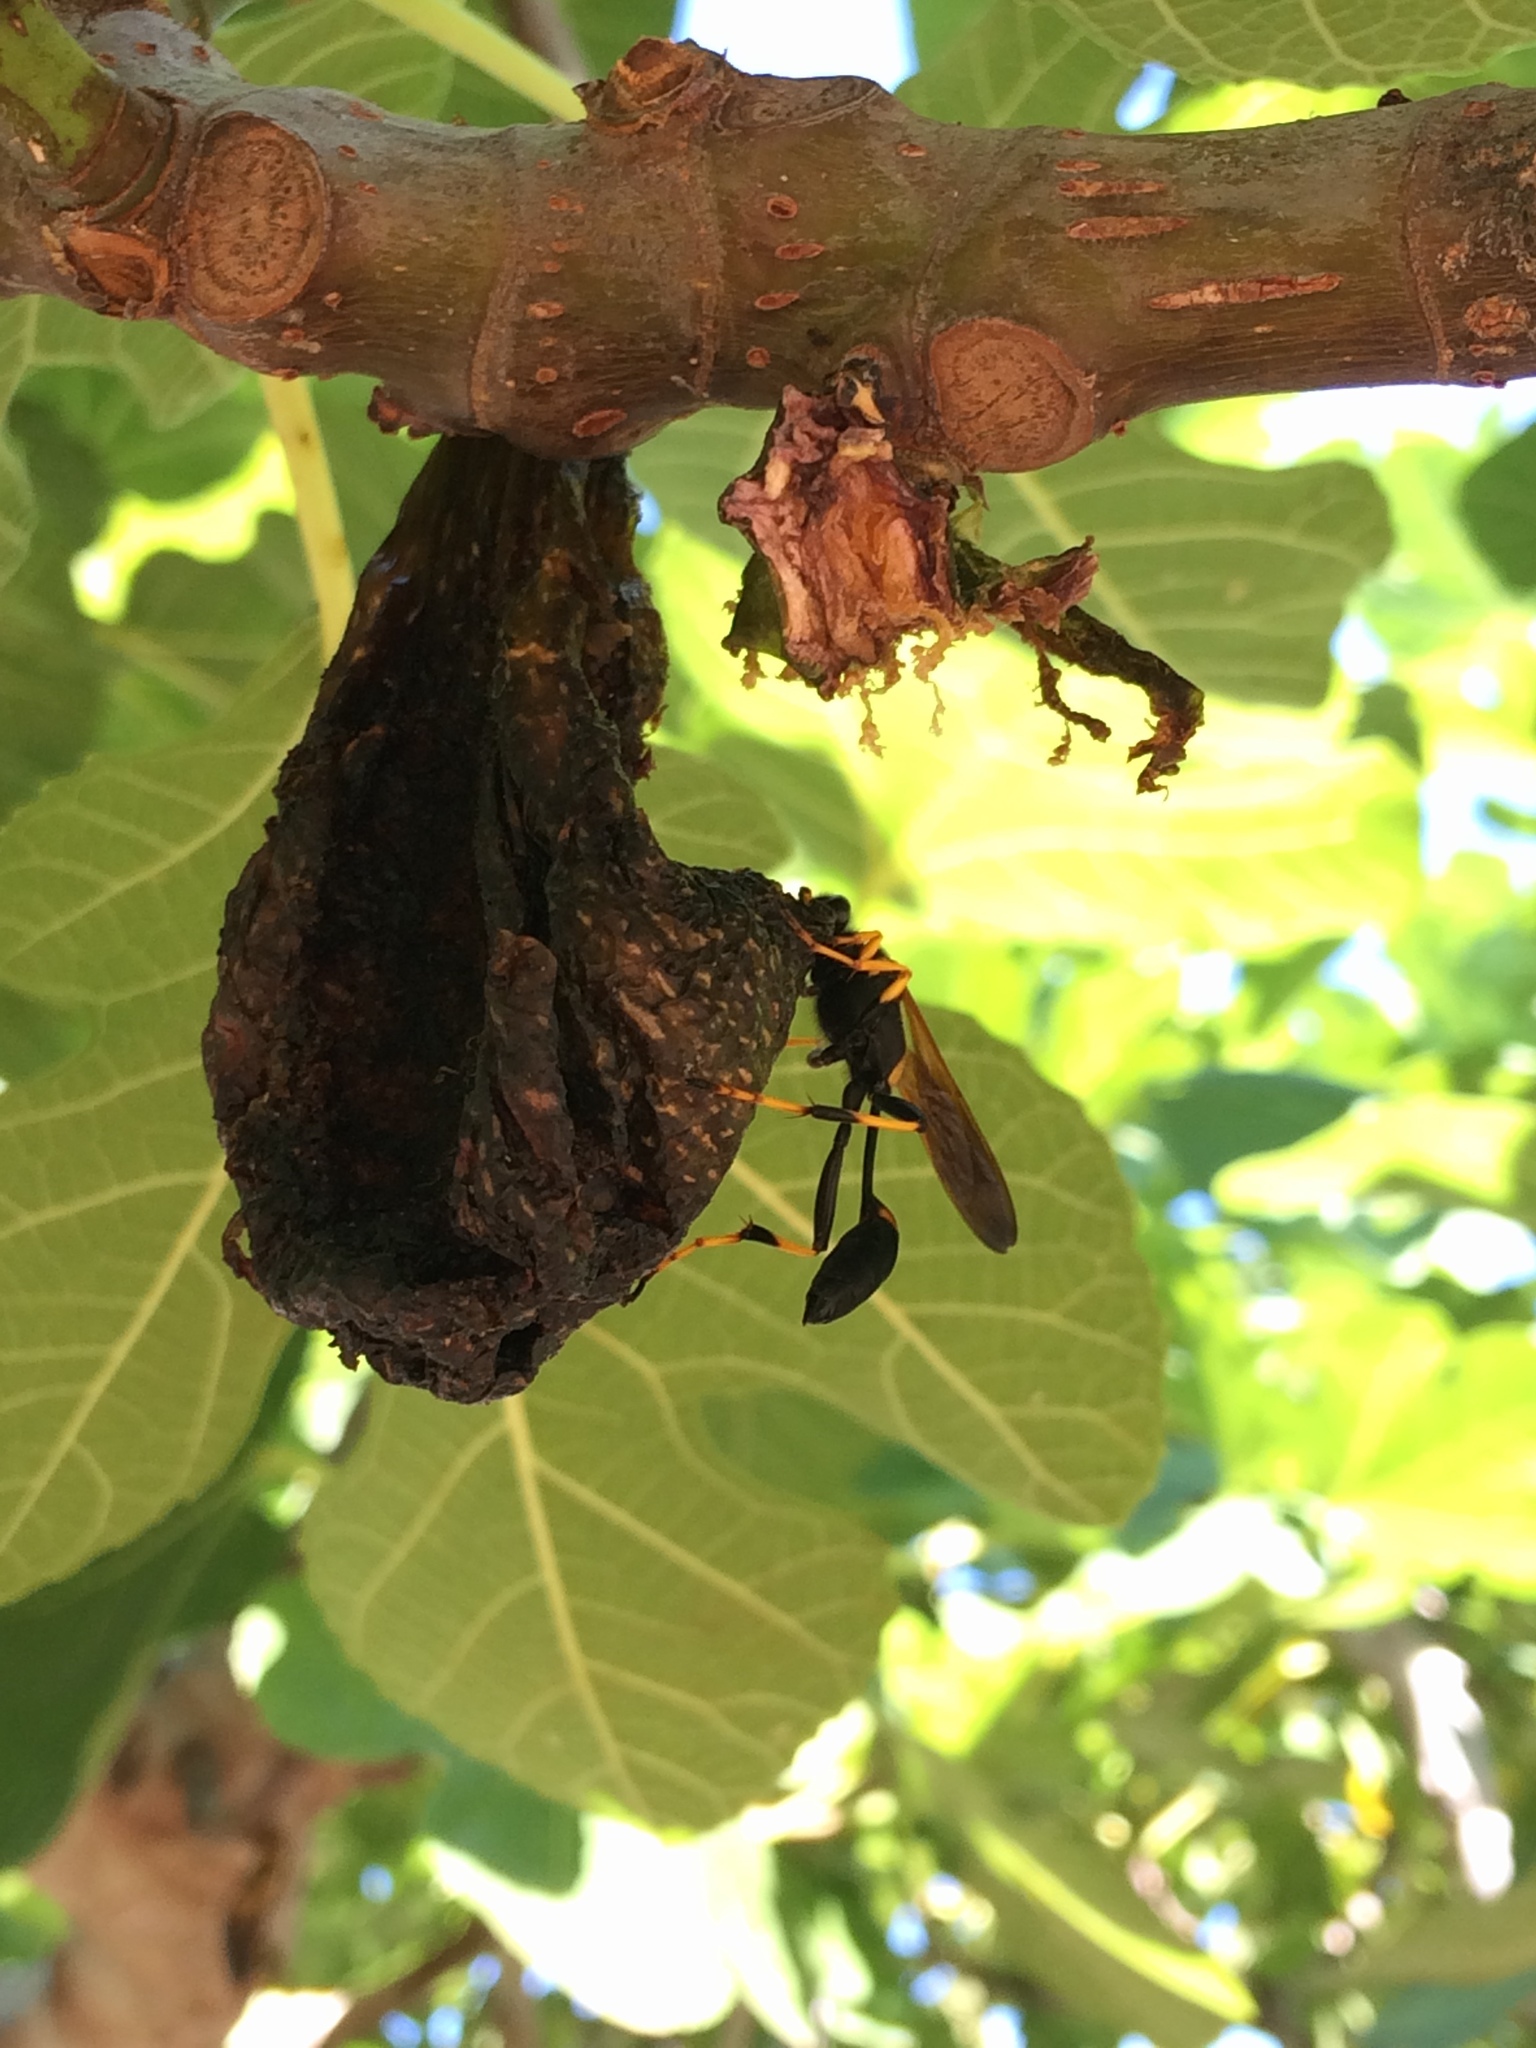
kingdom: Animalia
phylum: Arthropoda
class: Insecta
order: Hymenoptera
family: Sphecidae
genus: Sceliphron
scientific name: Sceliphron caementarium
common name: Mud dauber
